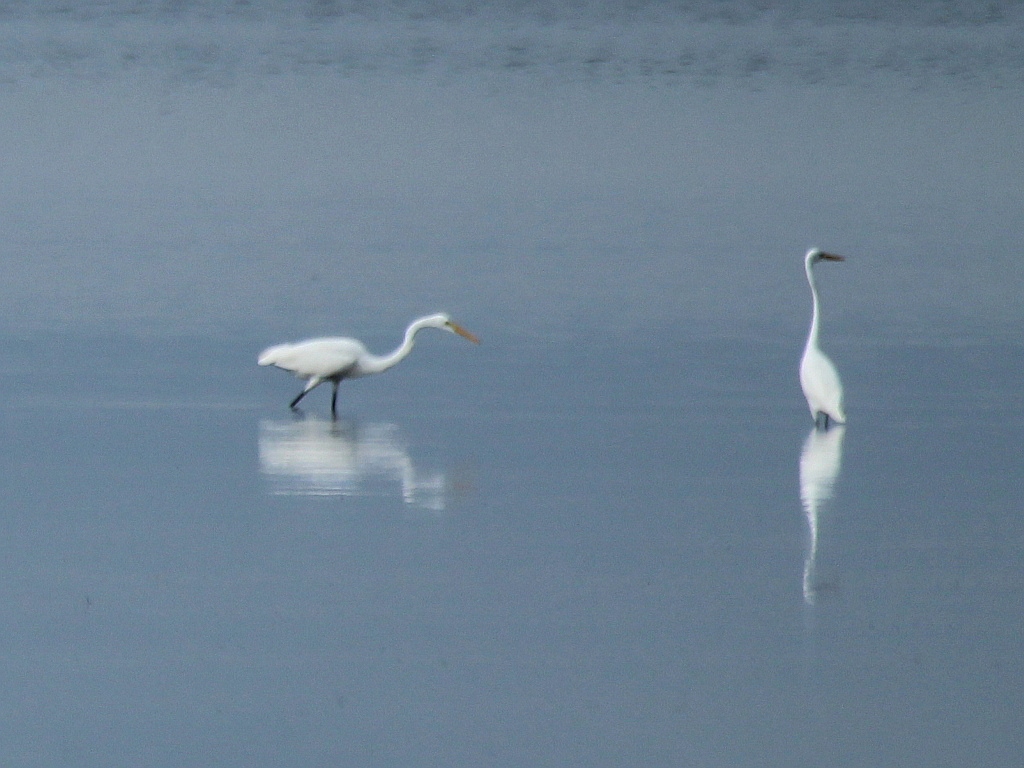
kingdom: Animalia
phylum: Chordata
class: Aves
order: Pelecaniformes
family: Ardeidae
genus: Ardea
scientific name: Ardea alba
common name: Great egret
